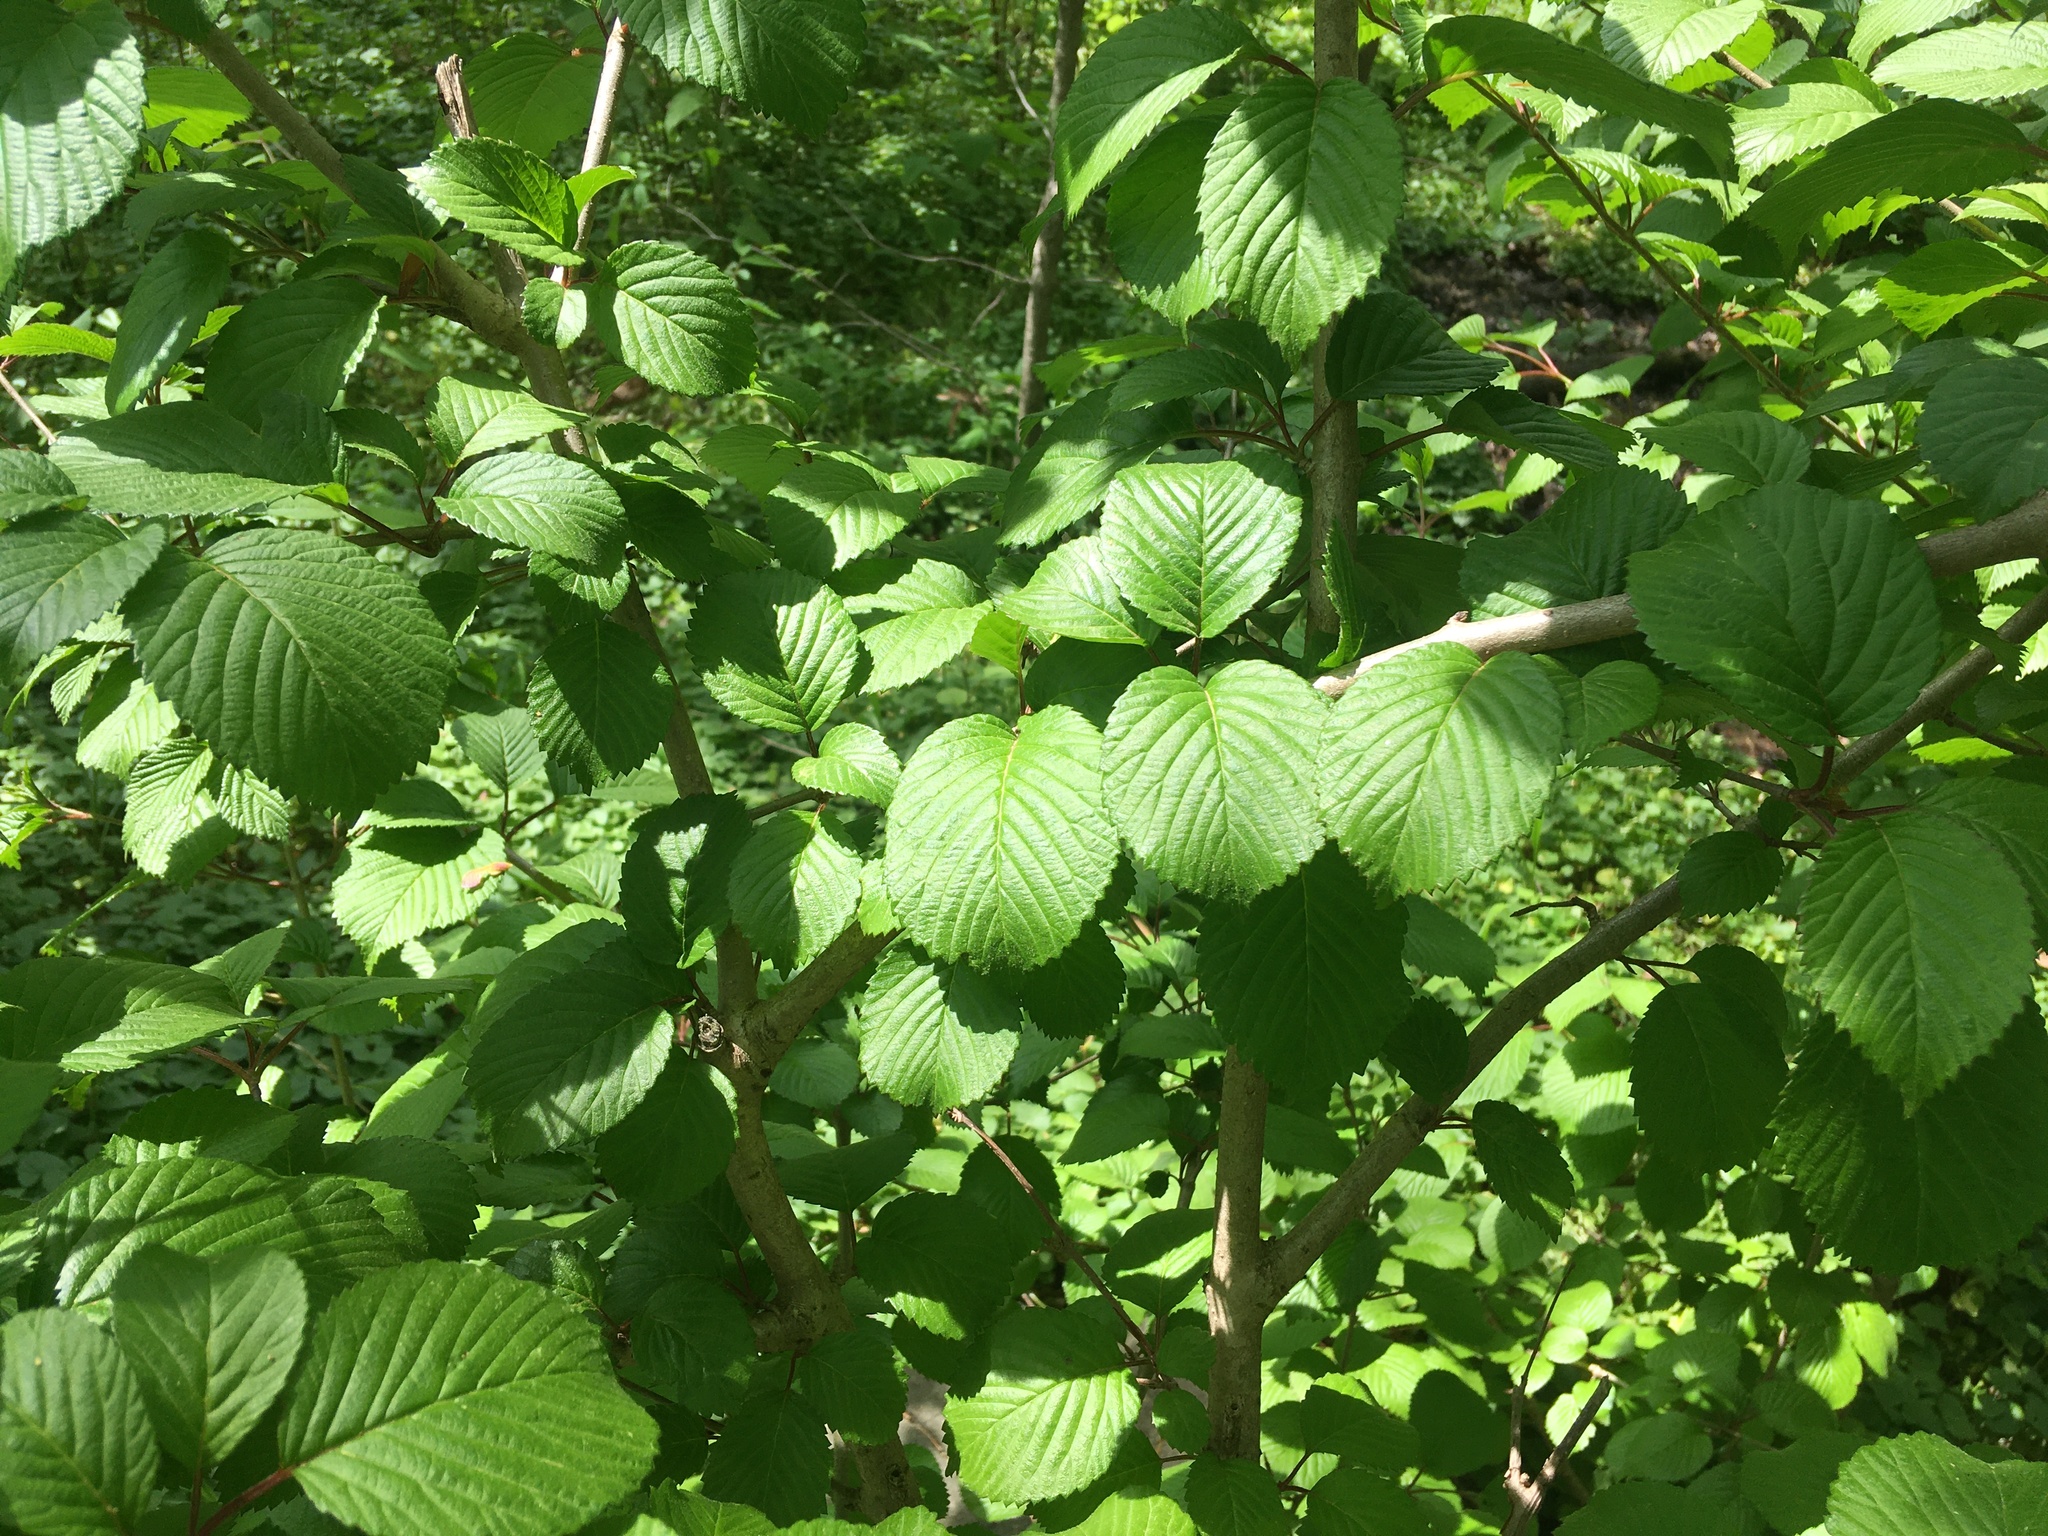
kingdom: Plantae
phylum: Tracheophyta
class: Magnoliopsida
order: Dipsacales
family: Viburnaceae
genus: Viburnum
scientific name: Viburnum plicatum
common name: Japanese snowball
